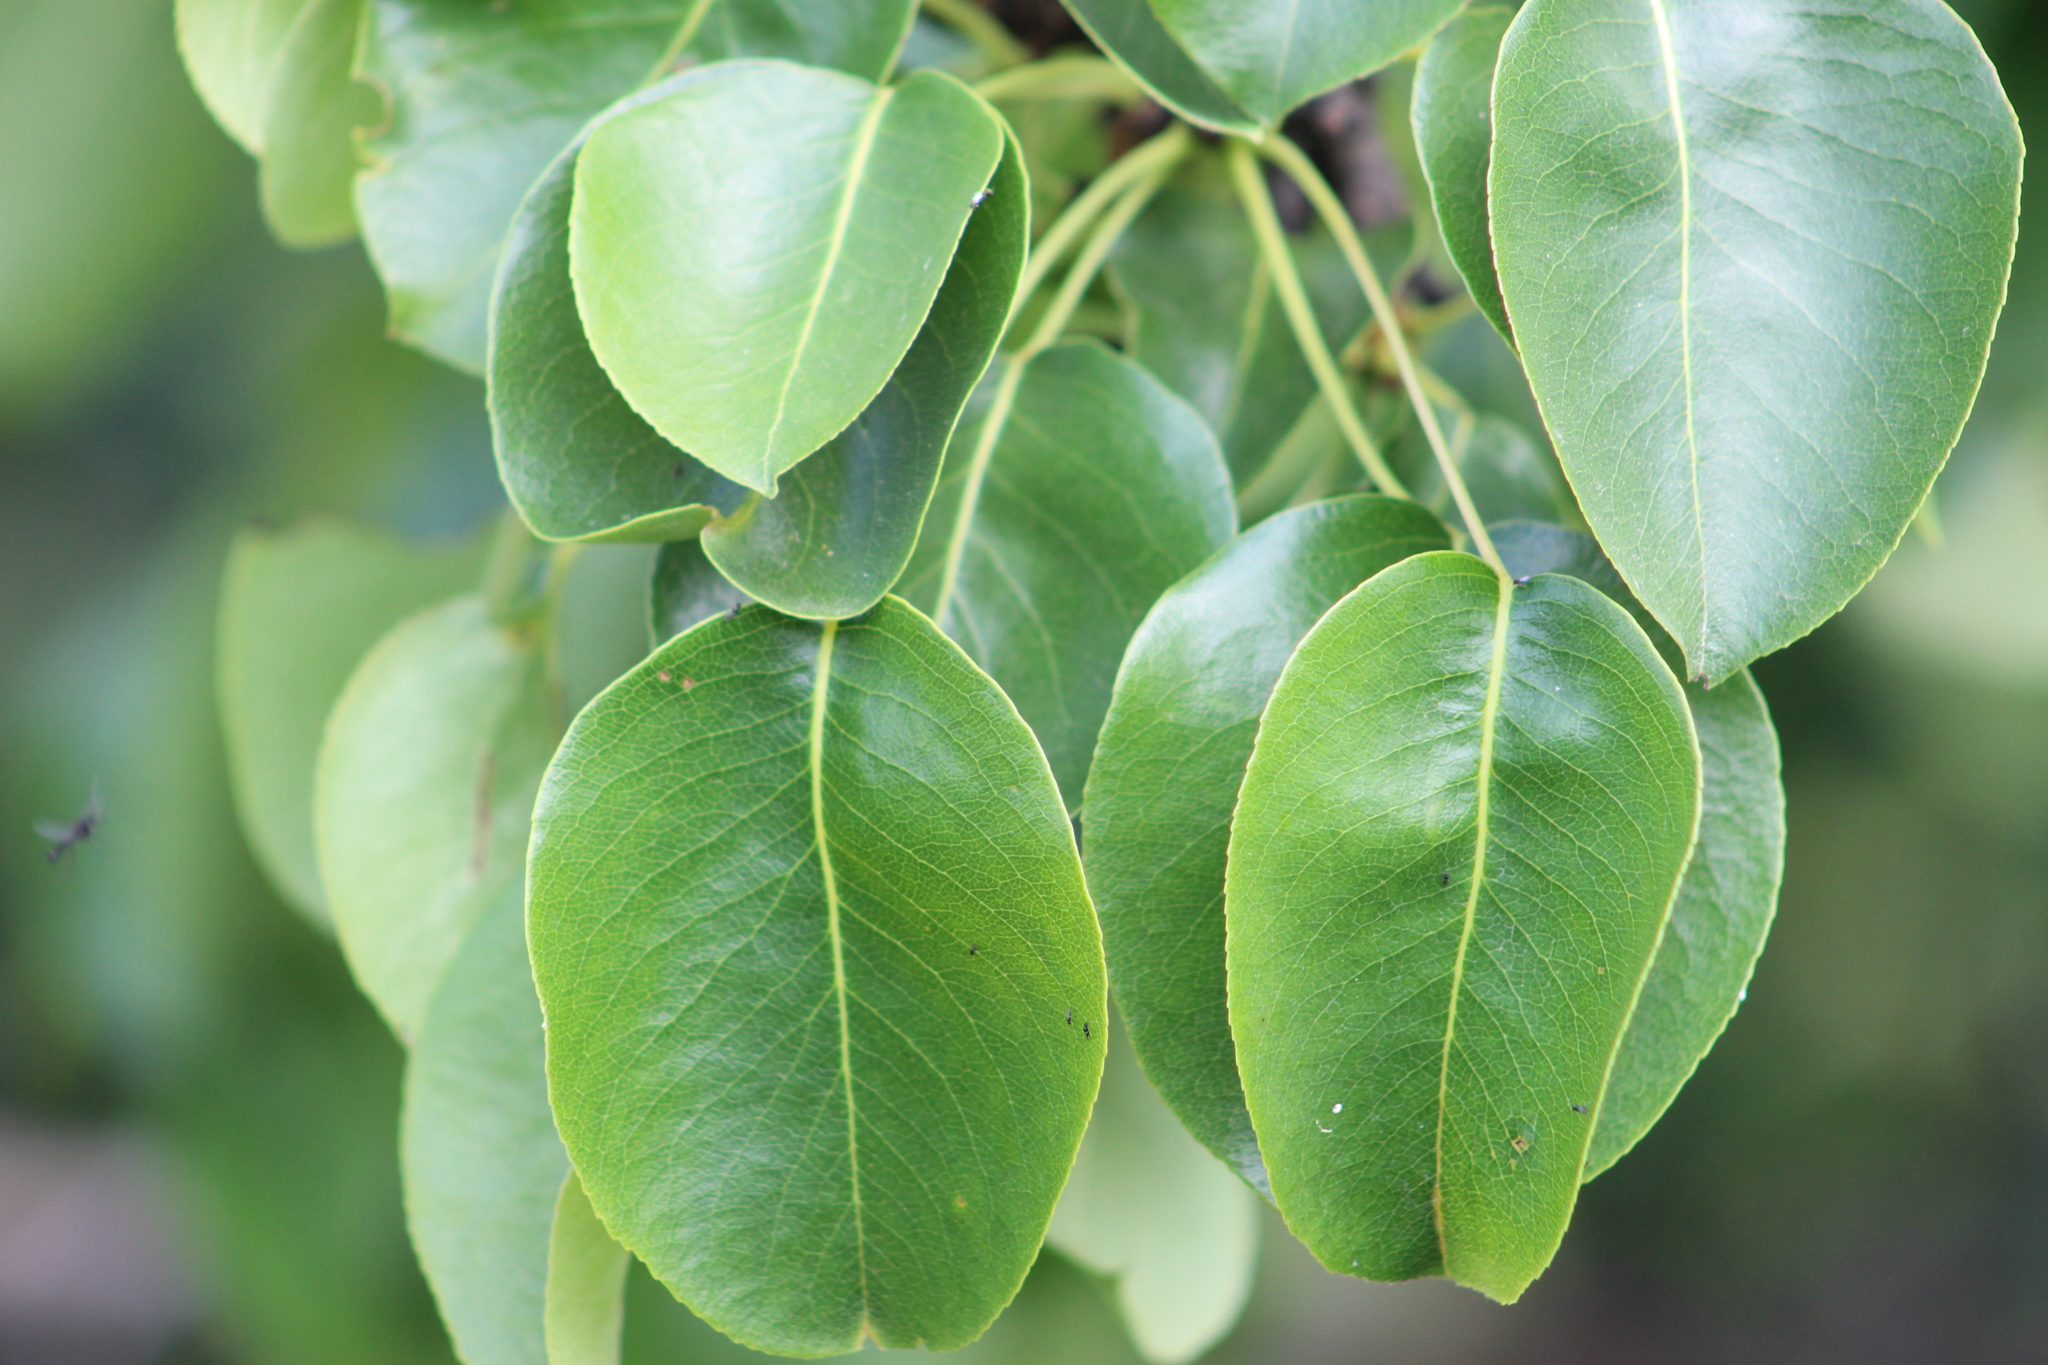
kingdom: Plantae
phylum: Tracheophyta
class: Magnoliopsida
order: Rosales
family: Rosaceae
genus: Pyrus
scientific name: Pyrus communis
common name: Pear
